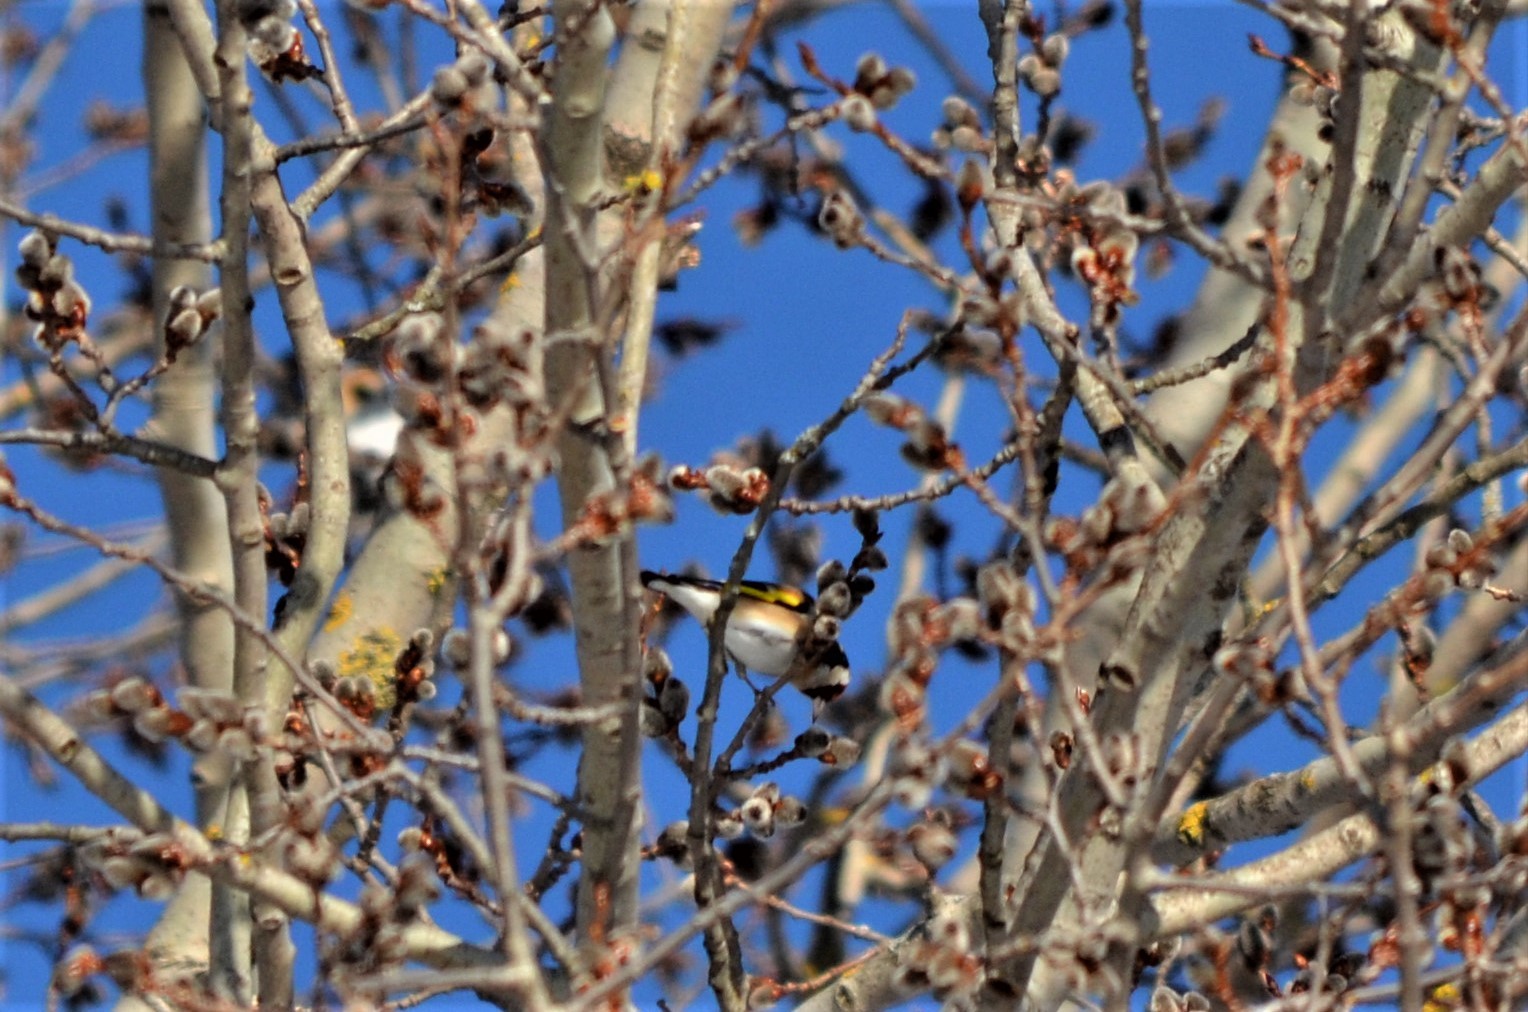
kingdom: Animalia
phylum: Chordata
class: Aves
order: Passeriformes
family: Fringillidae
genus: Carduelis
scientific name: Carduelis carduelis
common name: European goldfinch
